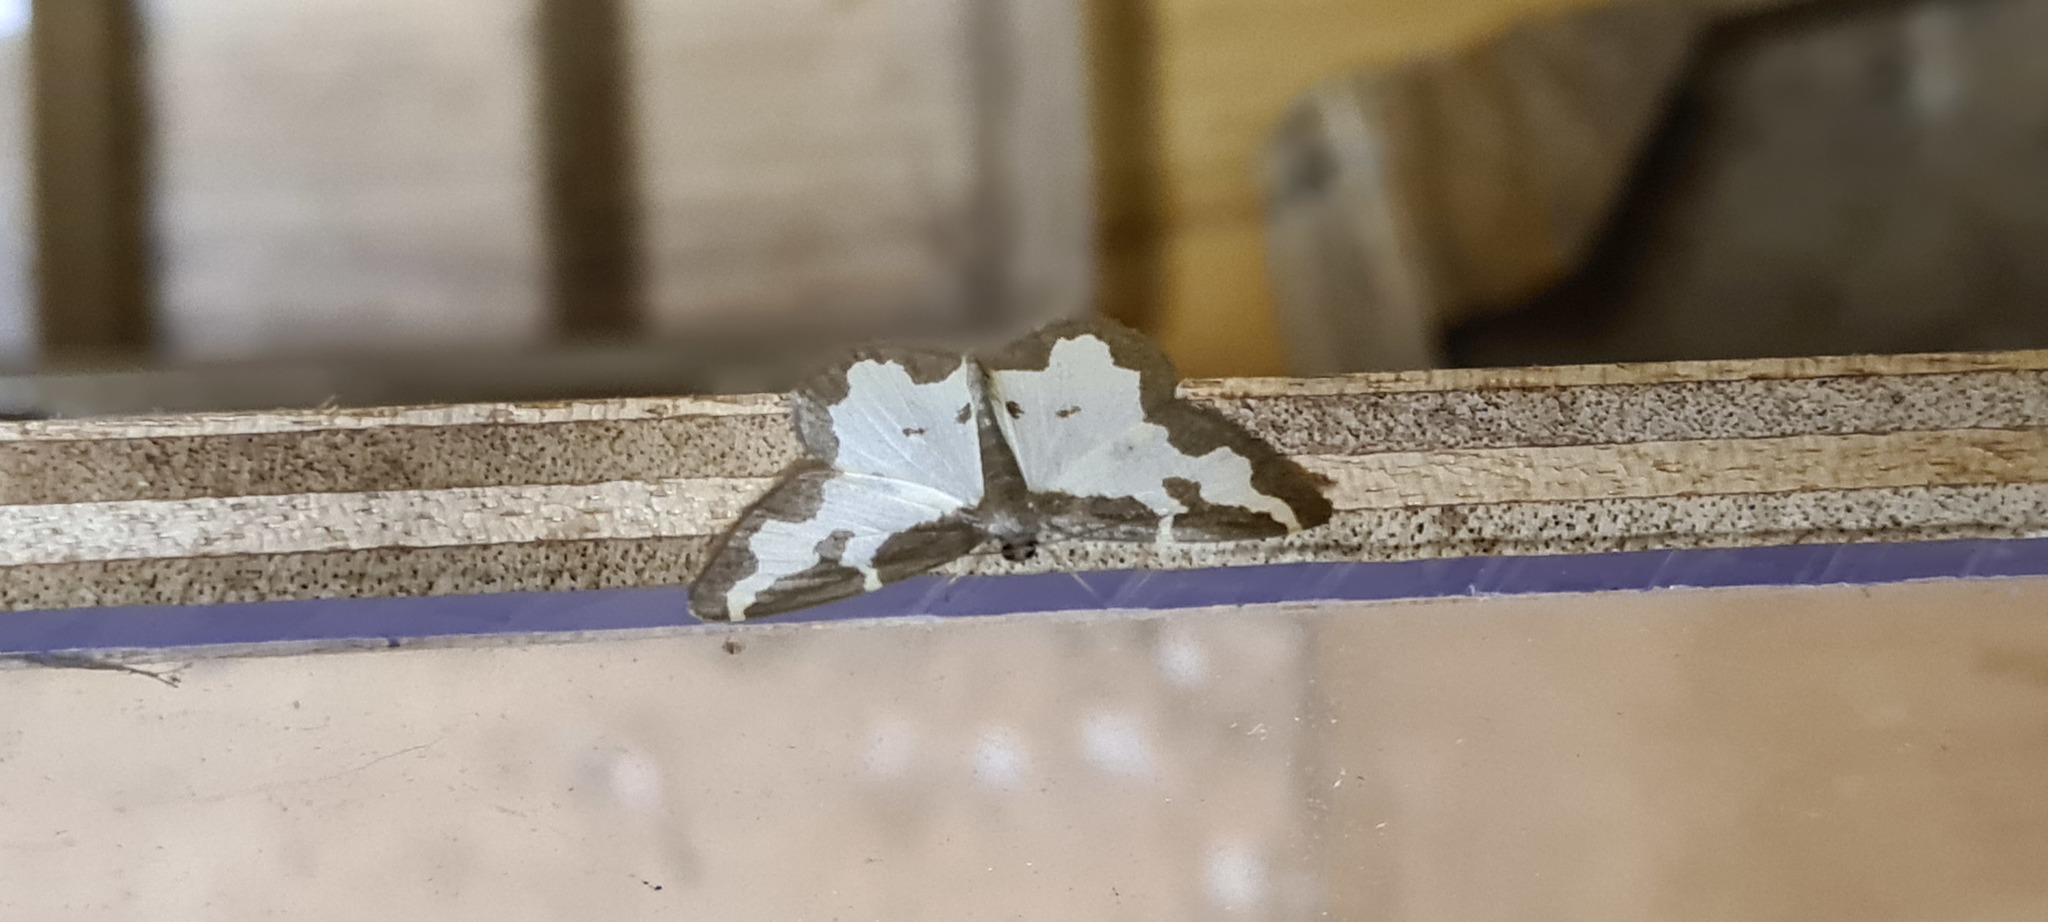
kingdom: Animalia
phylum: Arthropoda
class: Insecta
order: Lepidoptera
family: Geometridae
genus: Lomaspilis
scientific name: Lomaspilis marginata
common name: Clouded border
